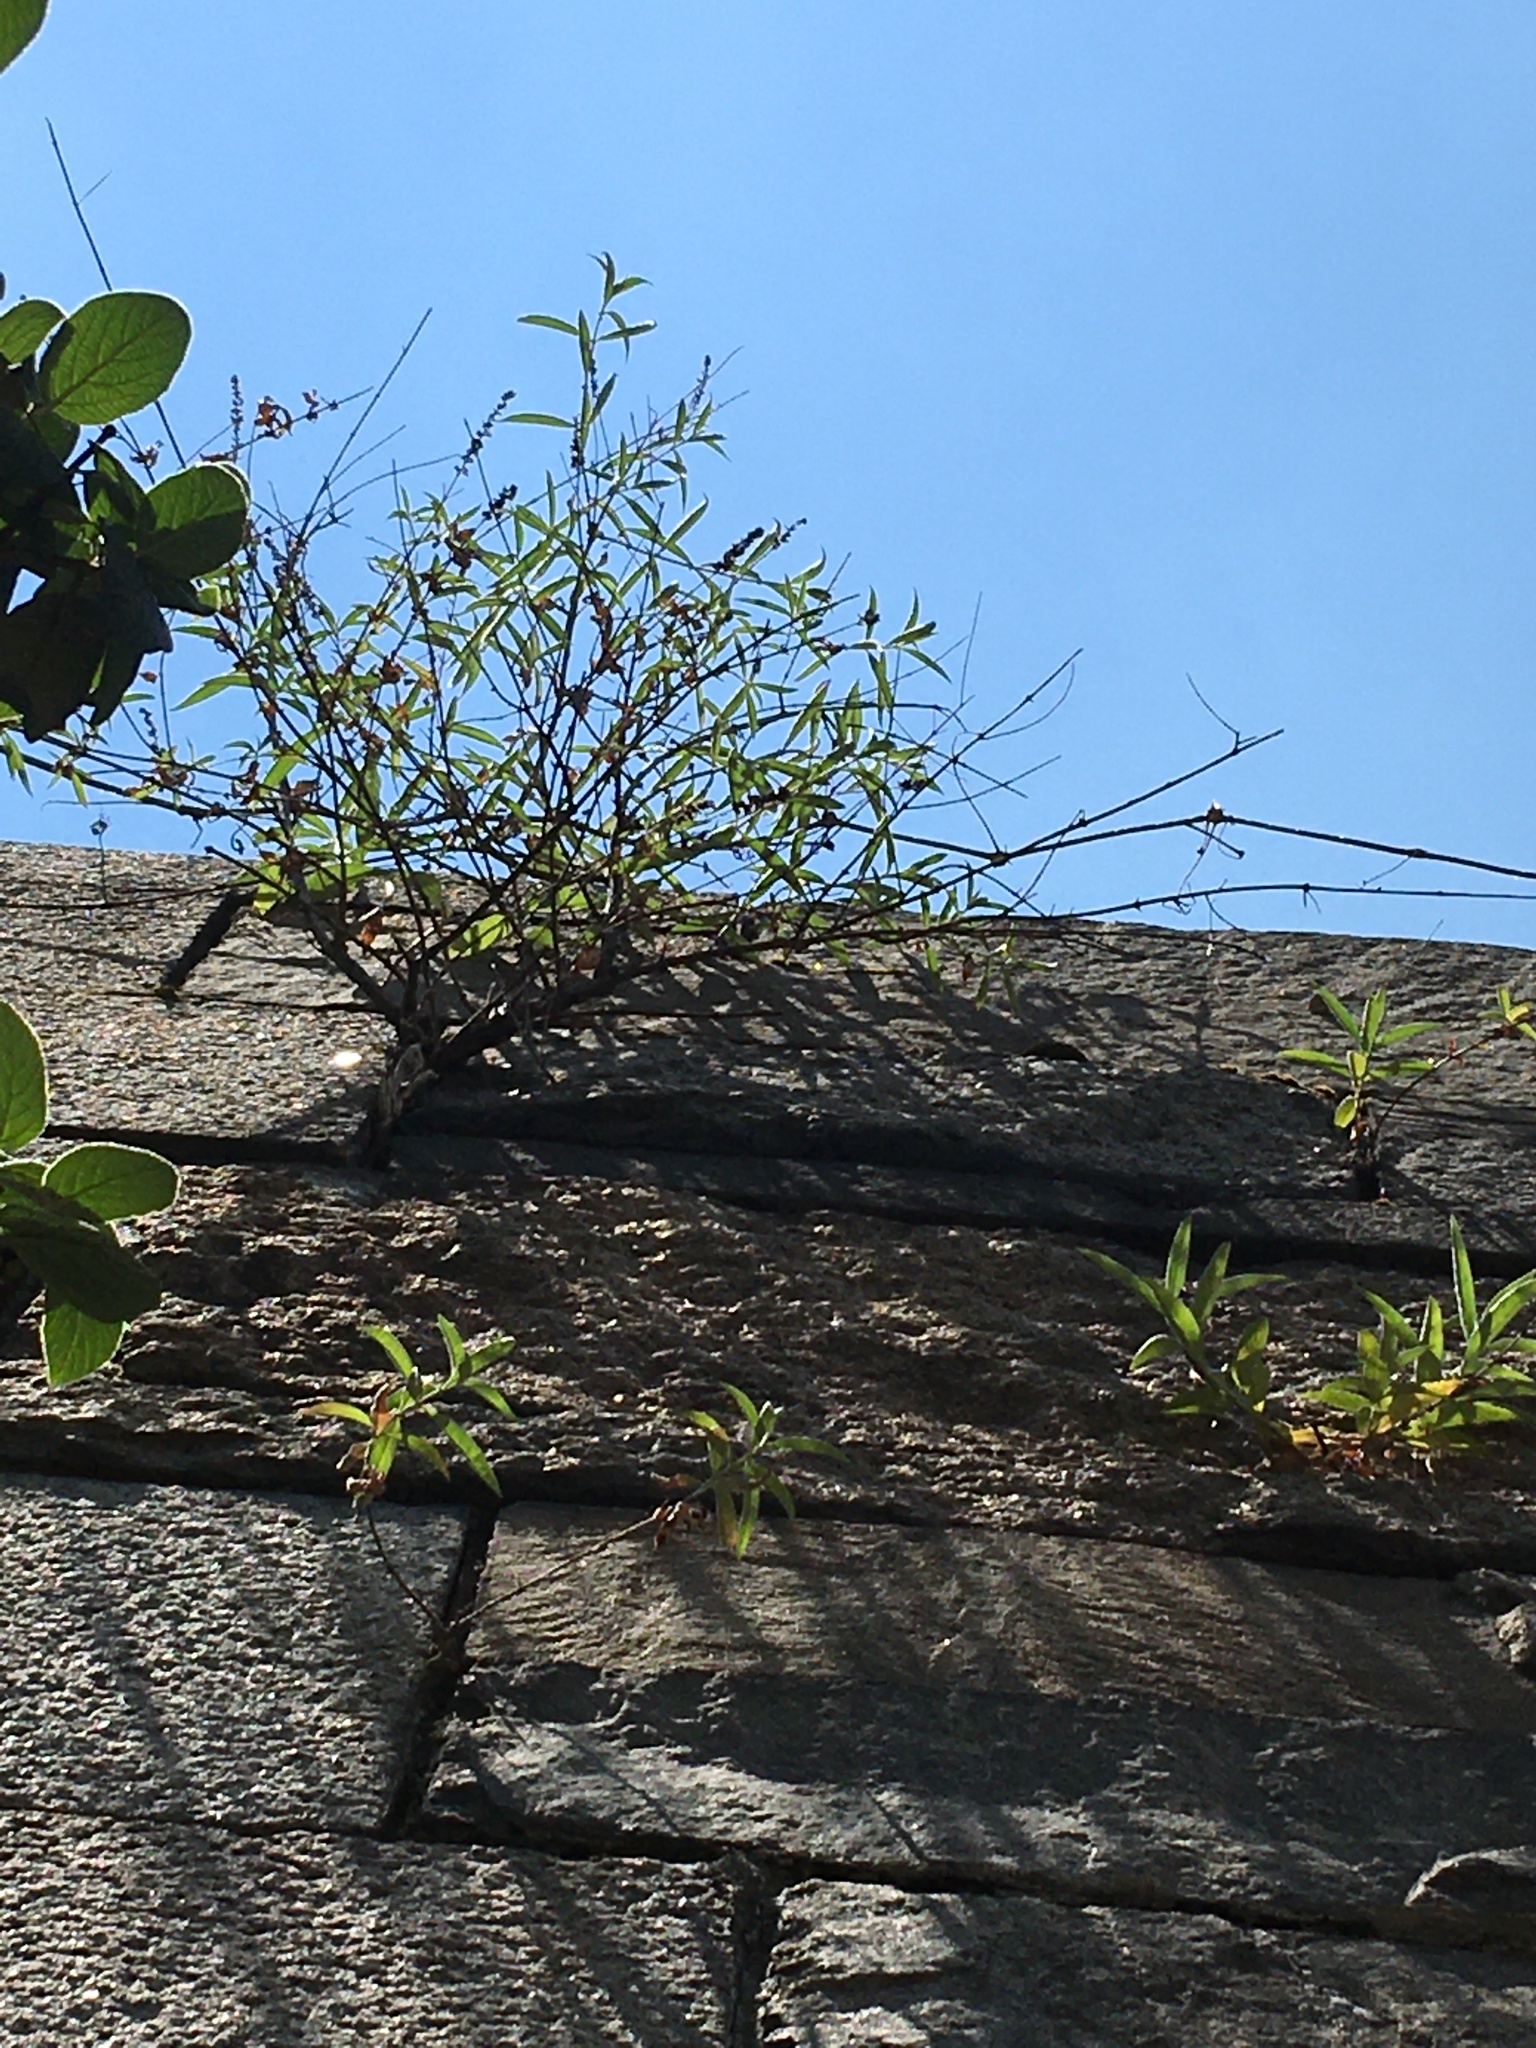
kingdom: Plantae
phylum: Tracheophyta
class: Magnoliopsida
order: Lamiales
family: Scrophulariaceae
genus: Buddleja
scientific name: Buddleja davidii
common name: Butterfly-bush
